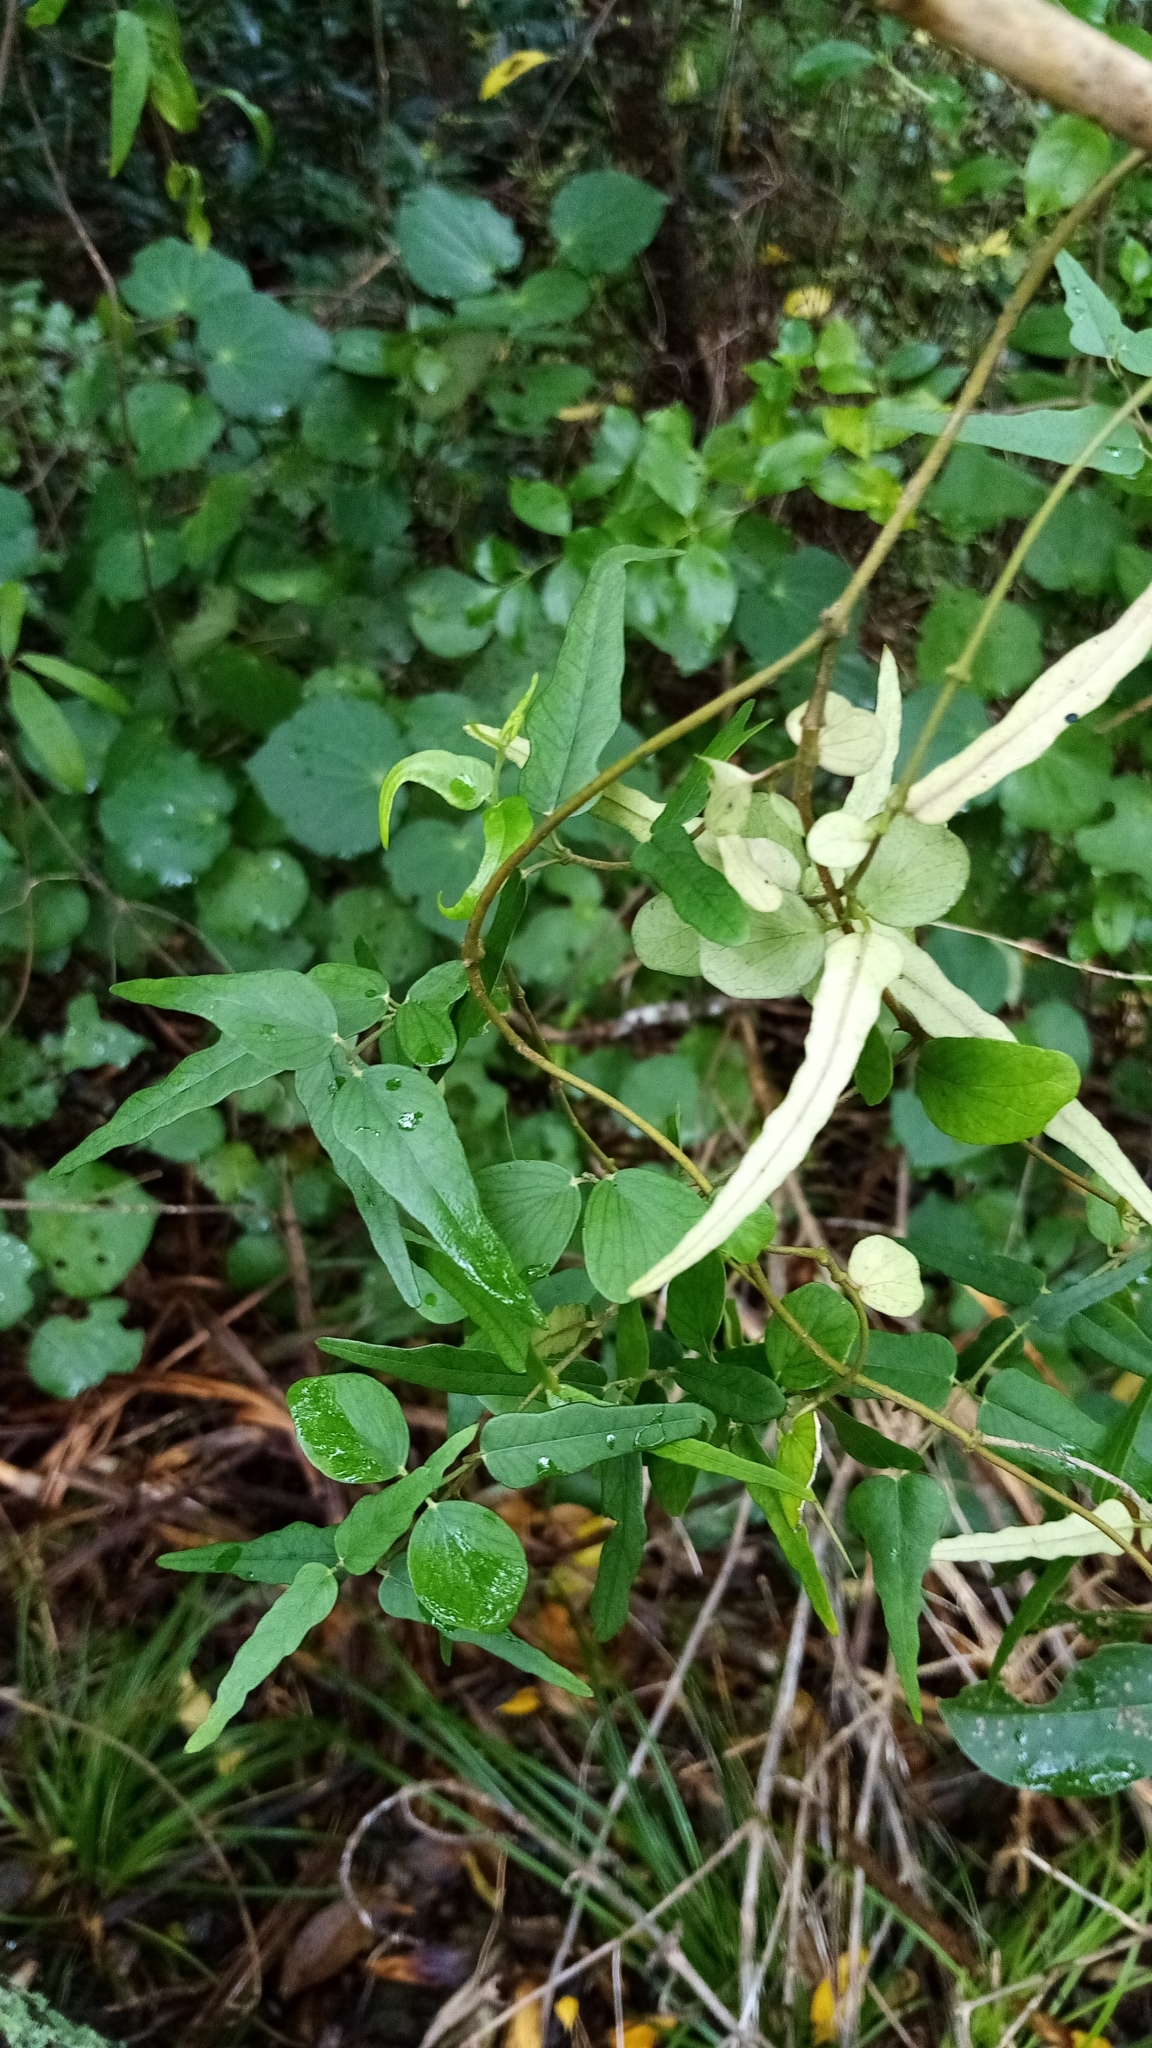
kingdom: Plantae
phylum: Tracheophyta
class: Magnoliopsida
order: Gentianales
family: Apocynaceae
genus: Parsonsia
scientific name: Parsonsia heterophylla
